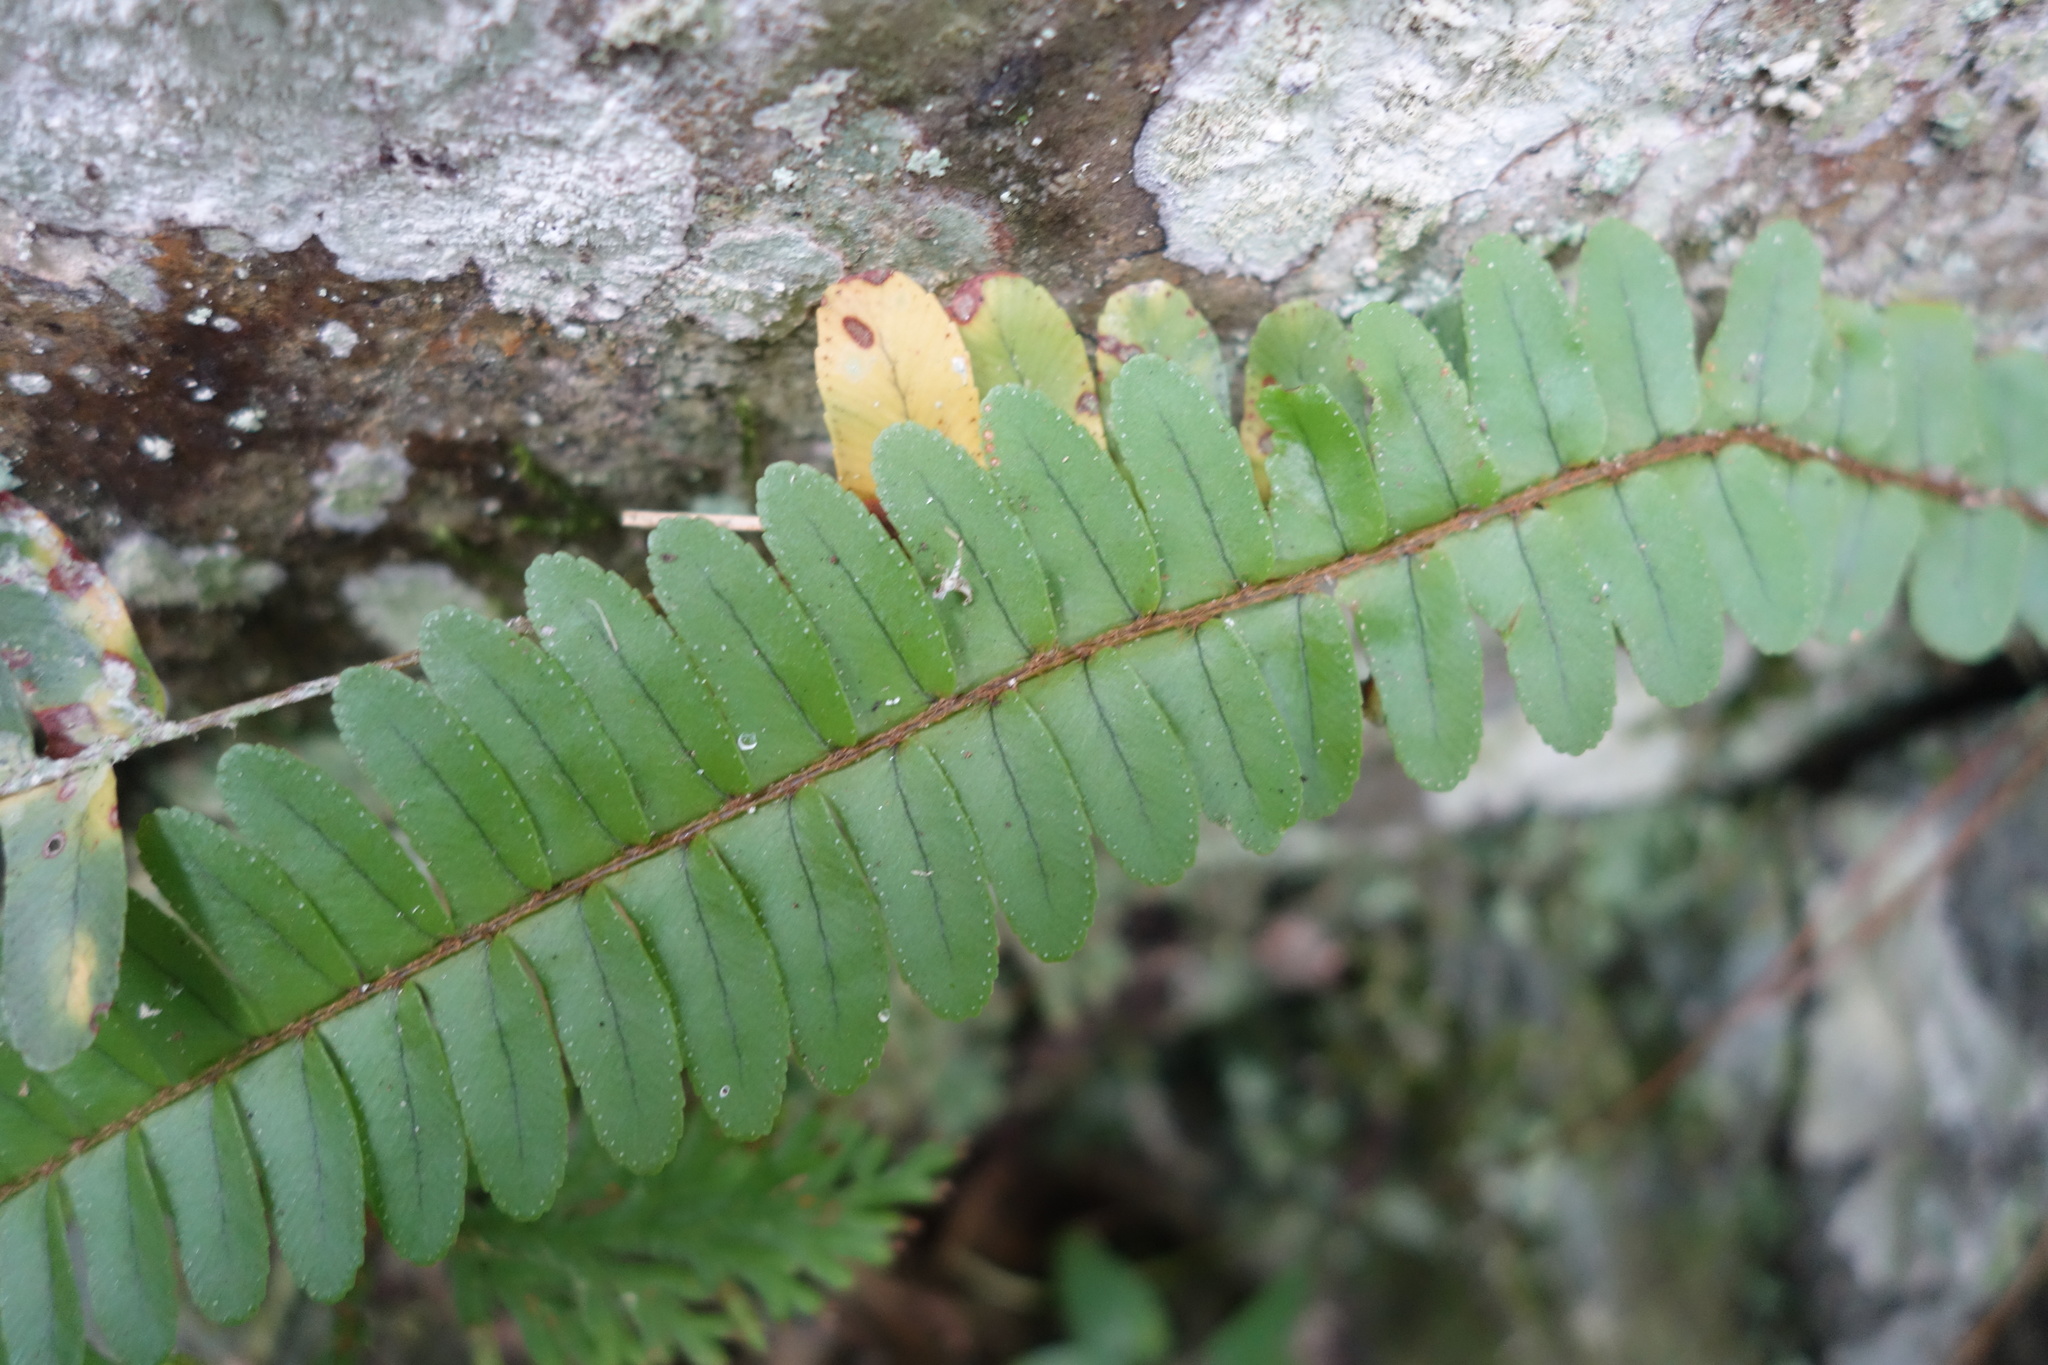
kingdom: Plantae
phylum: Tracheophyta
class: Polypodiopsida
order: Polypodiales
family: Nephrolepidaceae
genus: Nephrolepis
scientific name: Nephrolepis cordifolia
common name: Narrow swordfern
